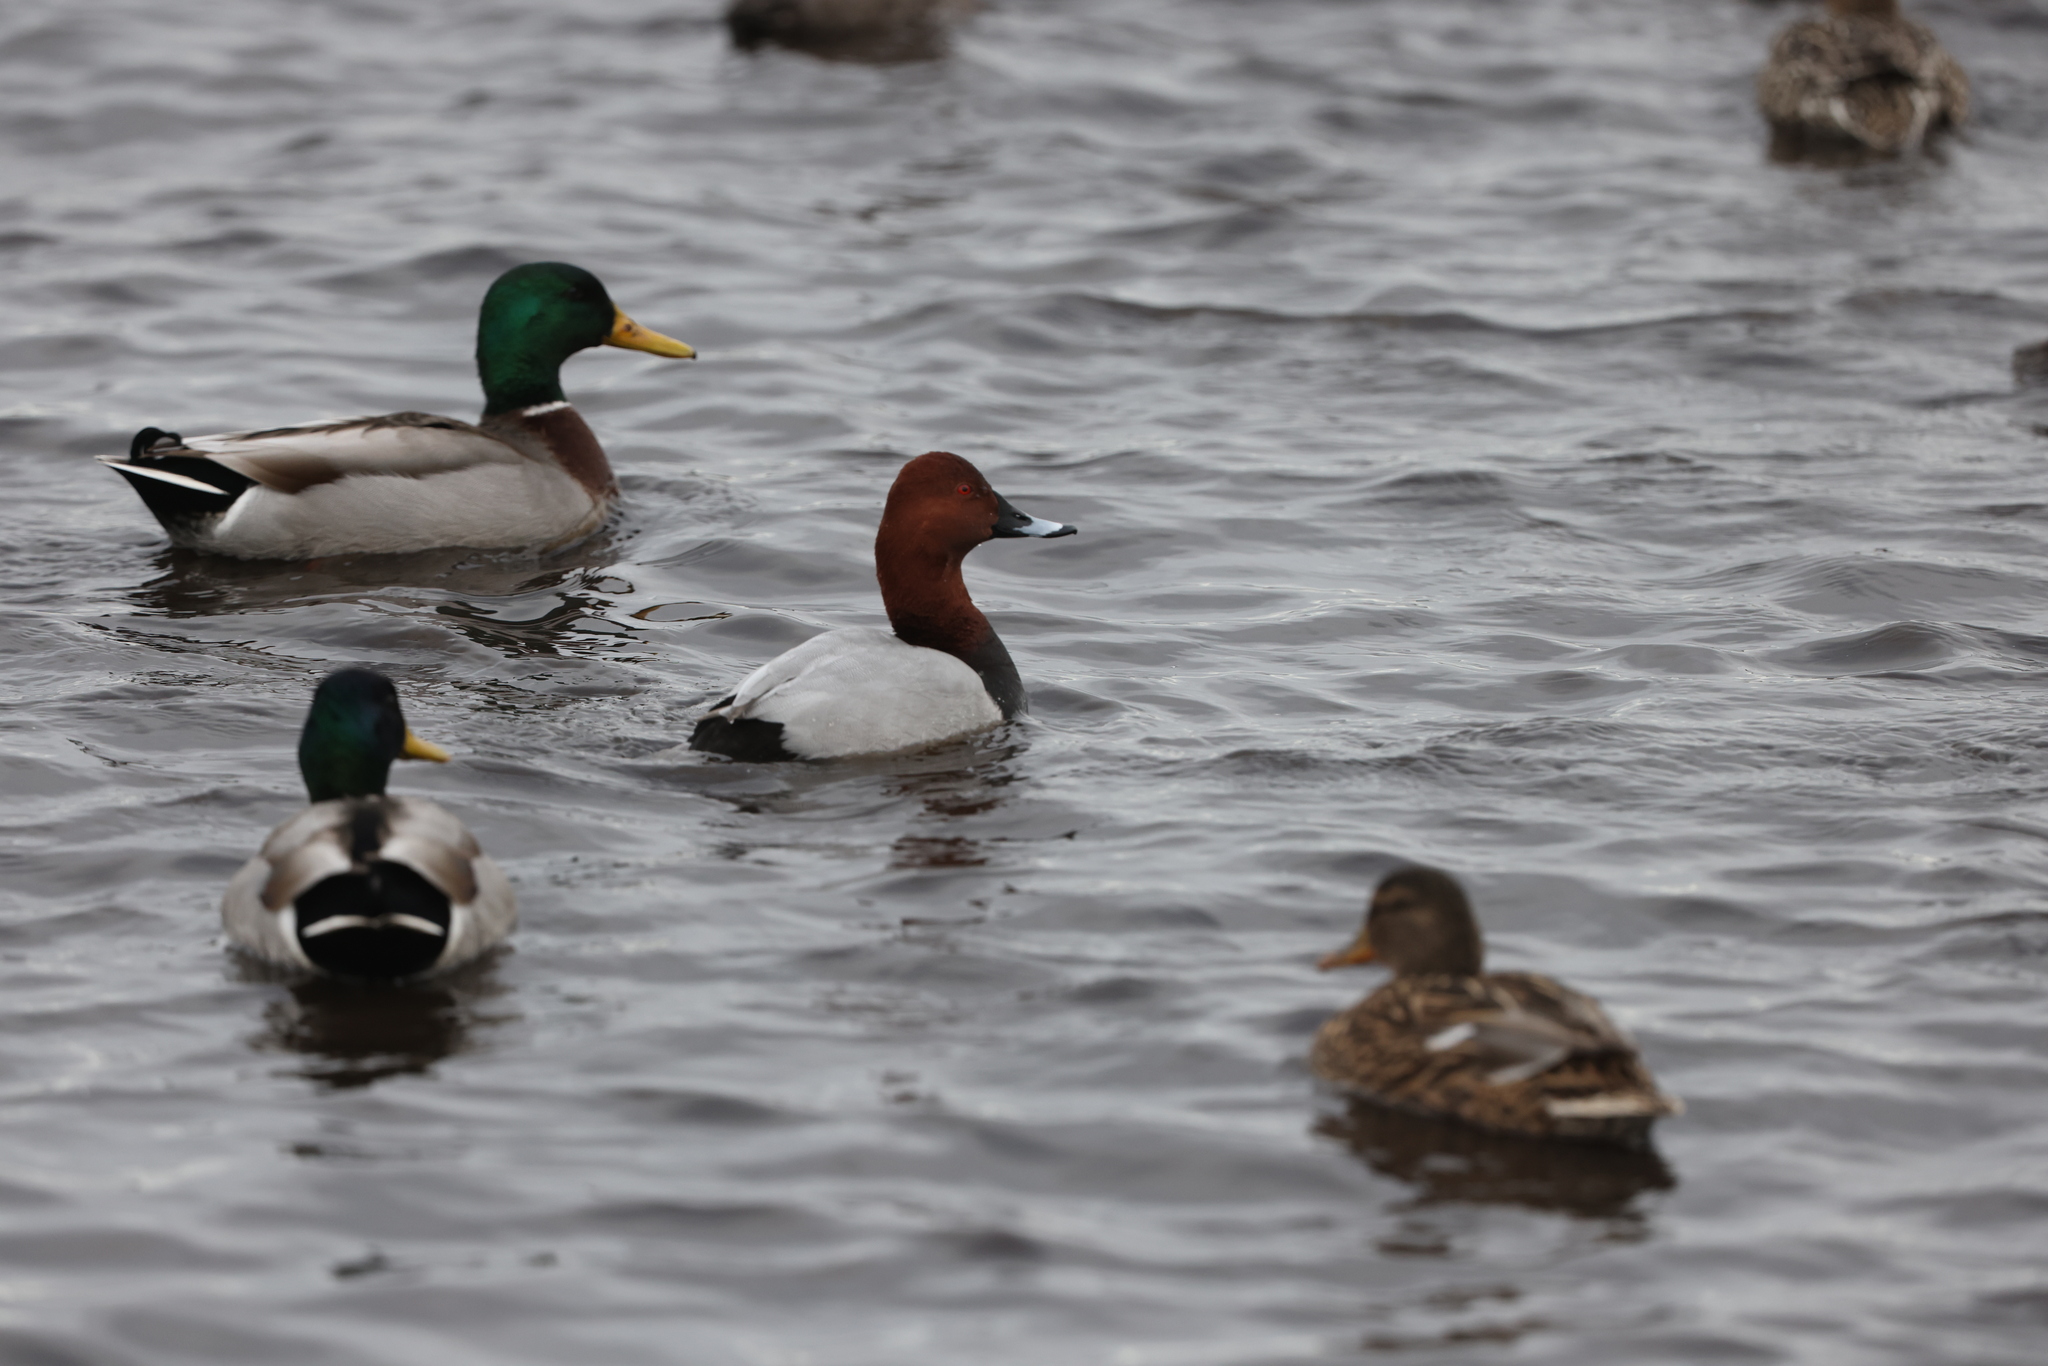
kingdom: Animalia
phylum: Chordata
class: Aves
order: Anseriformes
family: Anatidae
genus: Aythya
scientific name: Aythya ferina
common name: Common pochard
